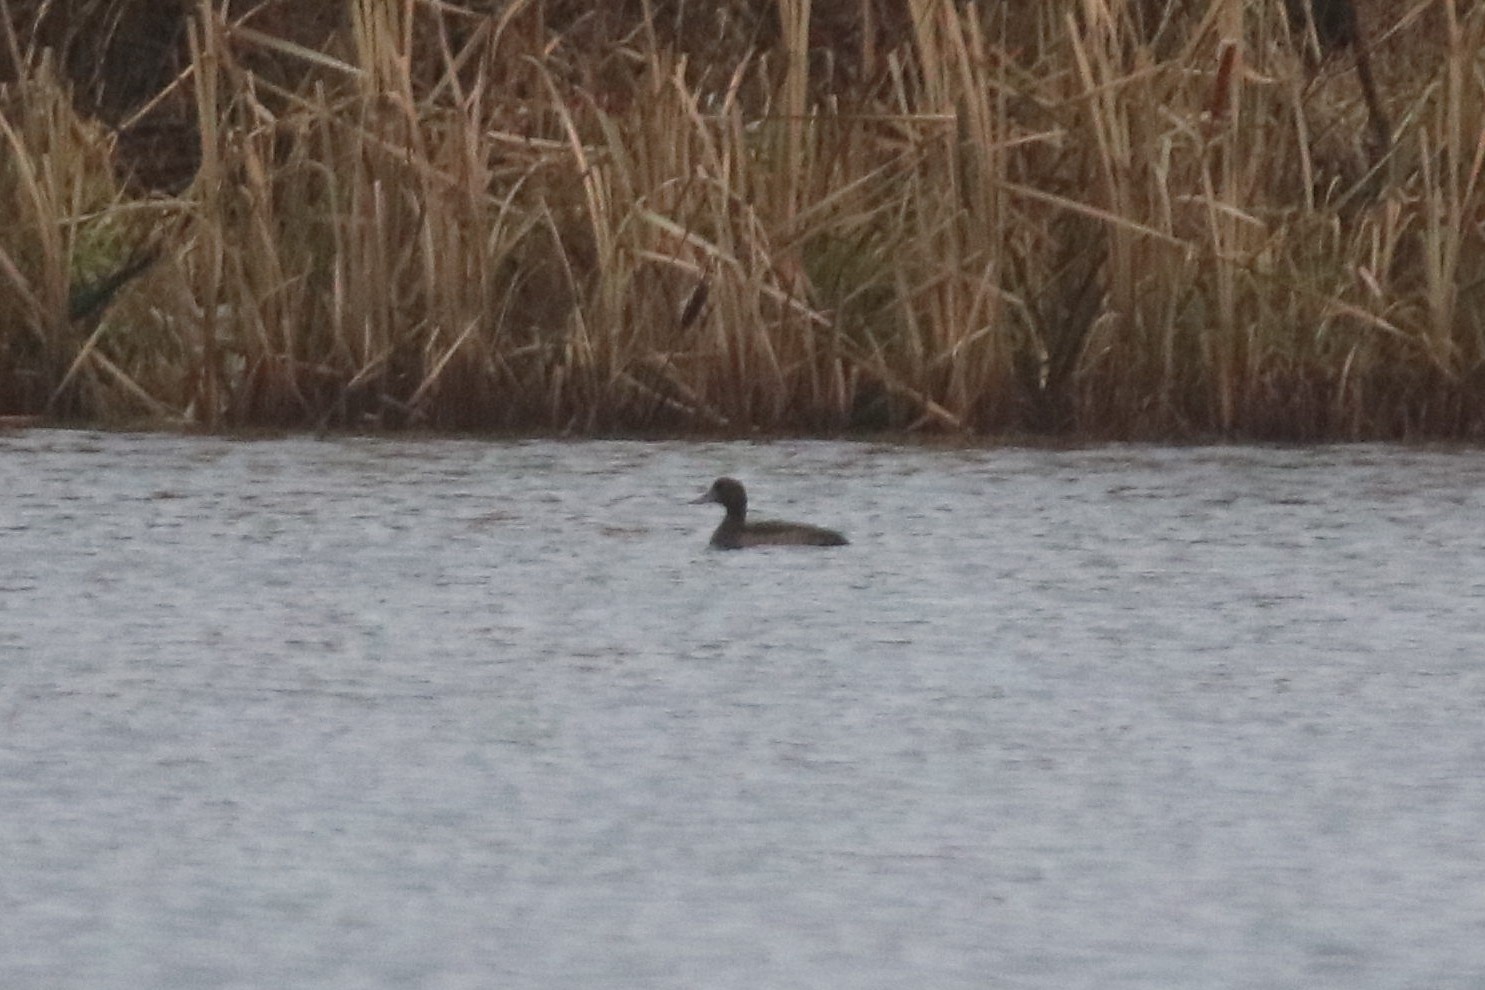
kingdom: Animalia
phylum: Chordata
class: Aves
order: Anseriformes
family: Anatidae
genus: Aythya
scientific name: Aythya fuligula
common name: Tufted duck
